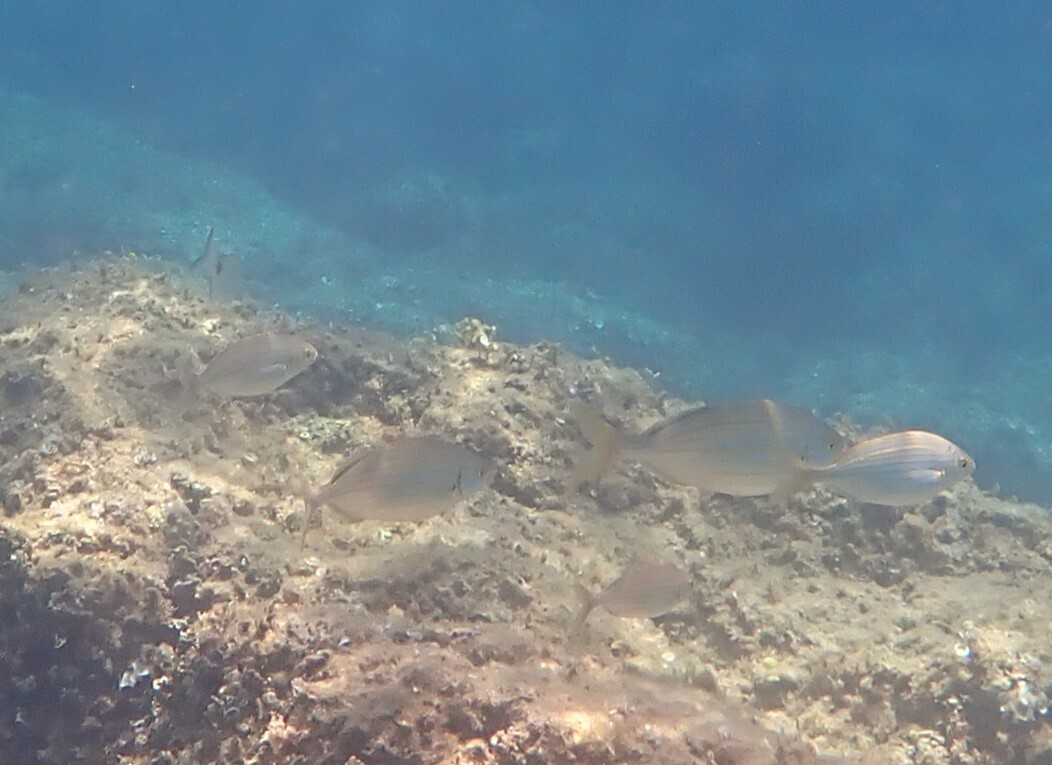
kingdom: Animalia
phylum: Chordata
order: Perciformes
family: Sparidae
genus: Sarpa
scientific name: Sarpa salpa
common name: Salema
